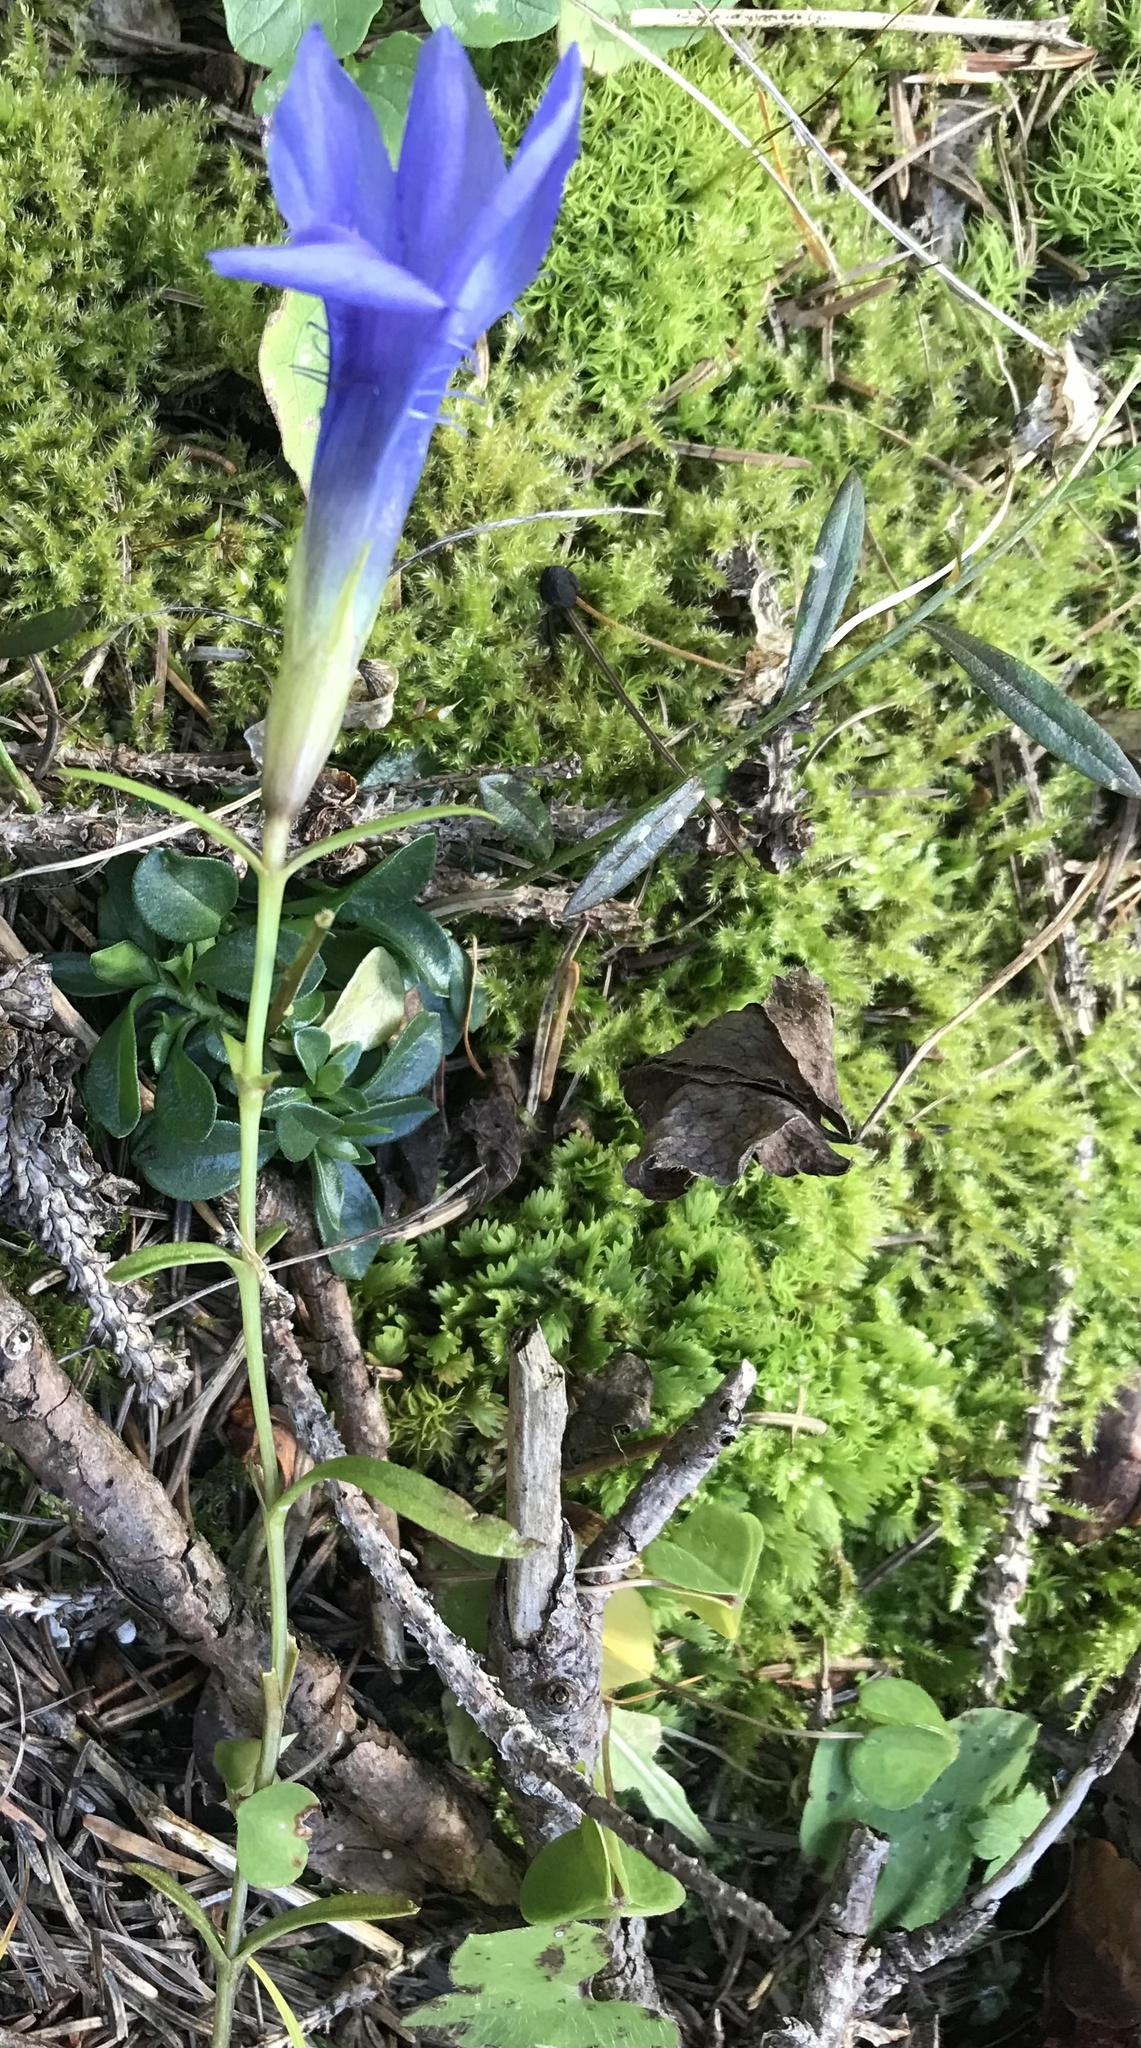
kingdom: Plantae
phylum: Tracheophyta
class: Magnoliopsida
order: Gentianales
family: Gentianaceae
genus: Gentianopsis
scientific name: Gentianopsis ciliata
